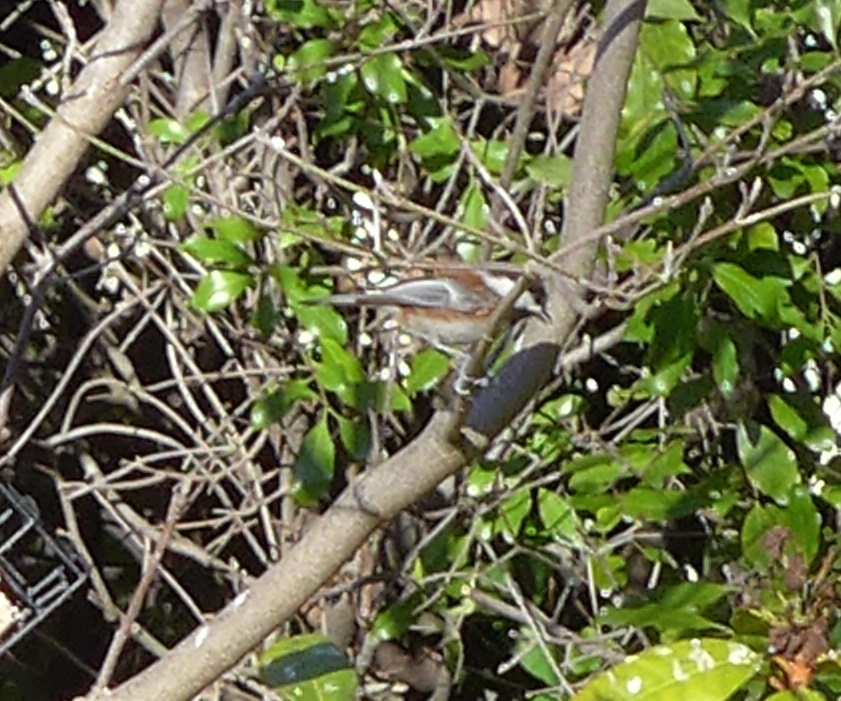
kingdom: Animalia
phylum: Chordata
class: Aves
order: Passeriformes
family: Paridae
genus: Poecile
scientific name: Poecile rufescens
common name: Chestnut-backed chickadee
